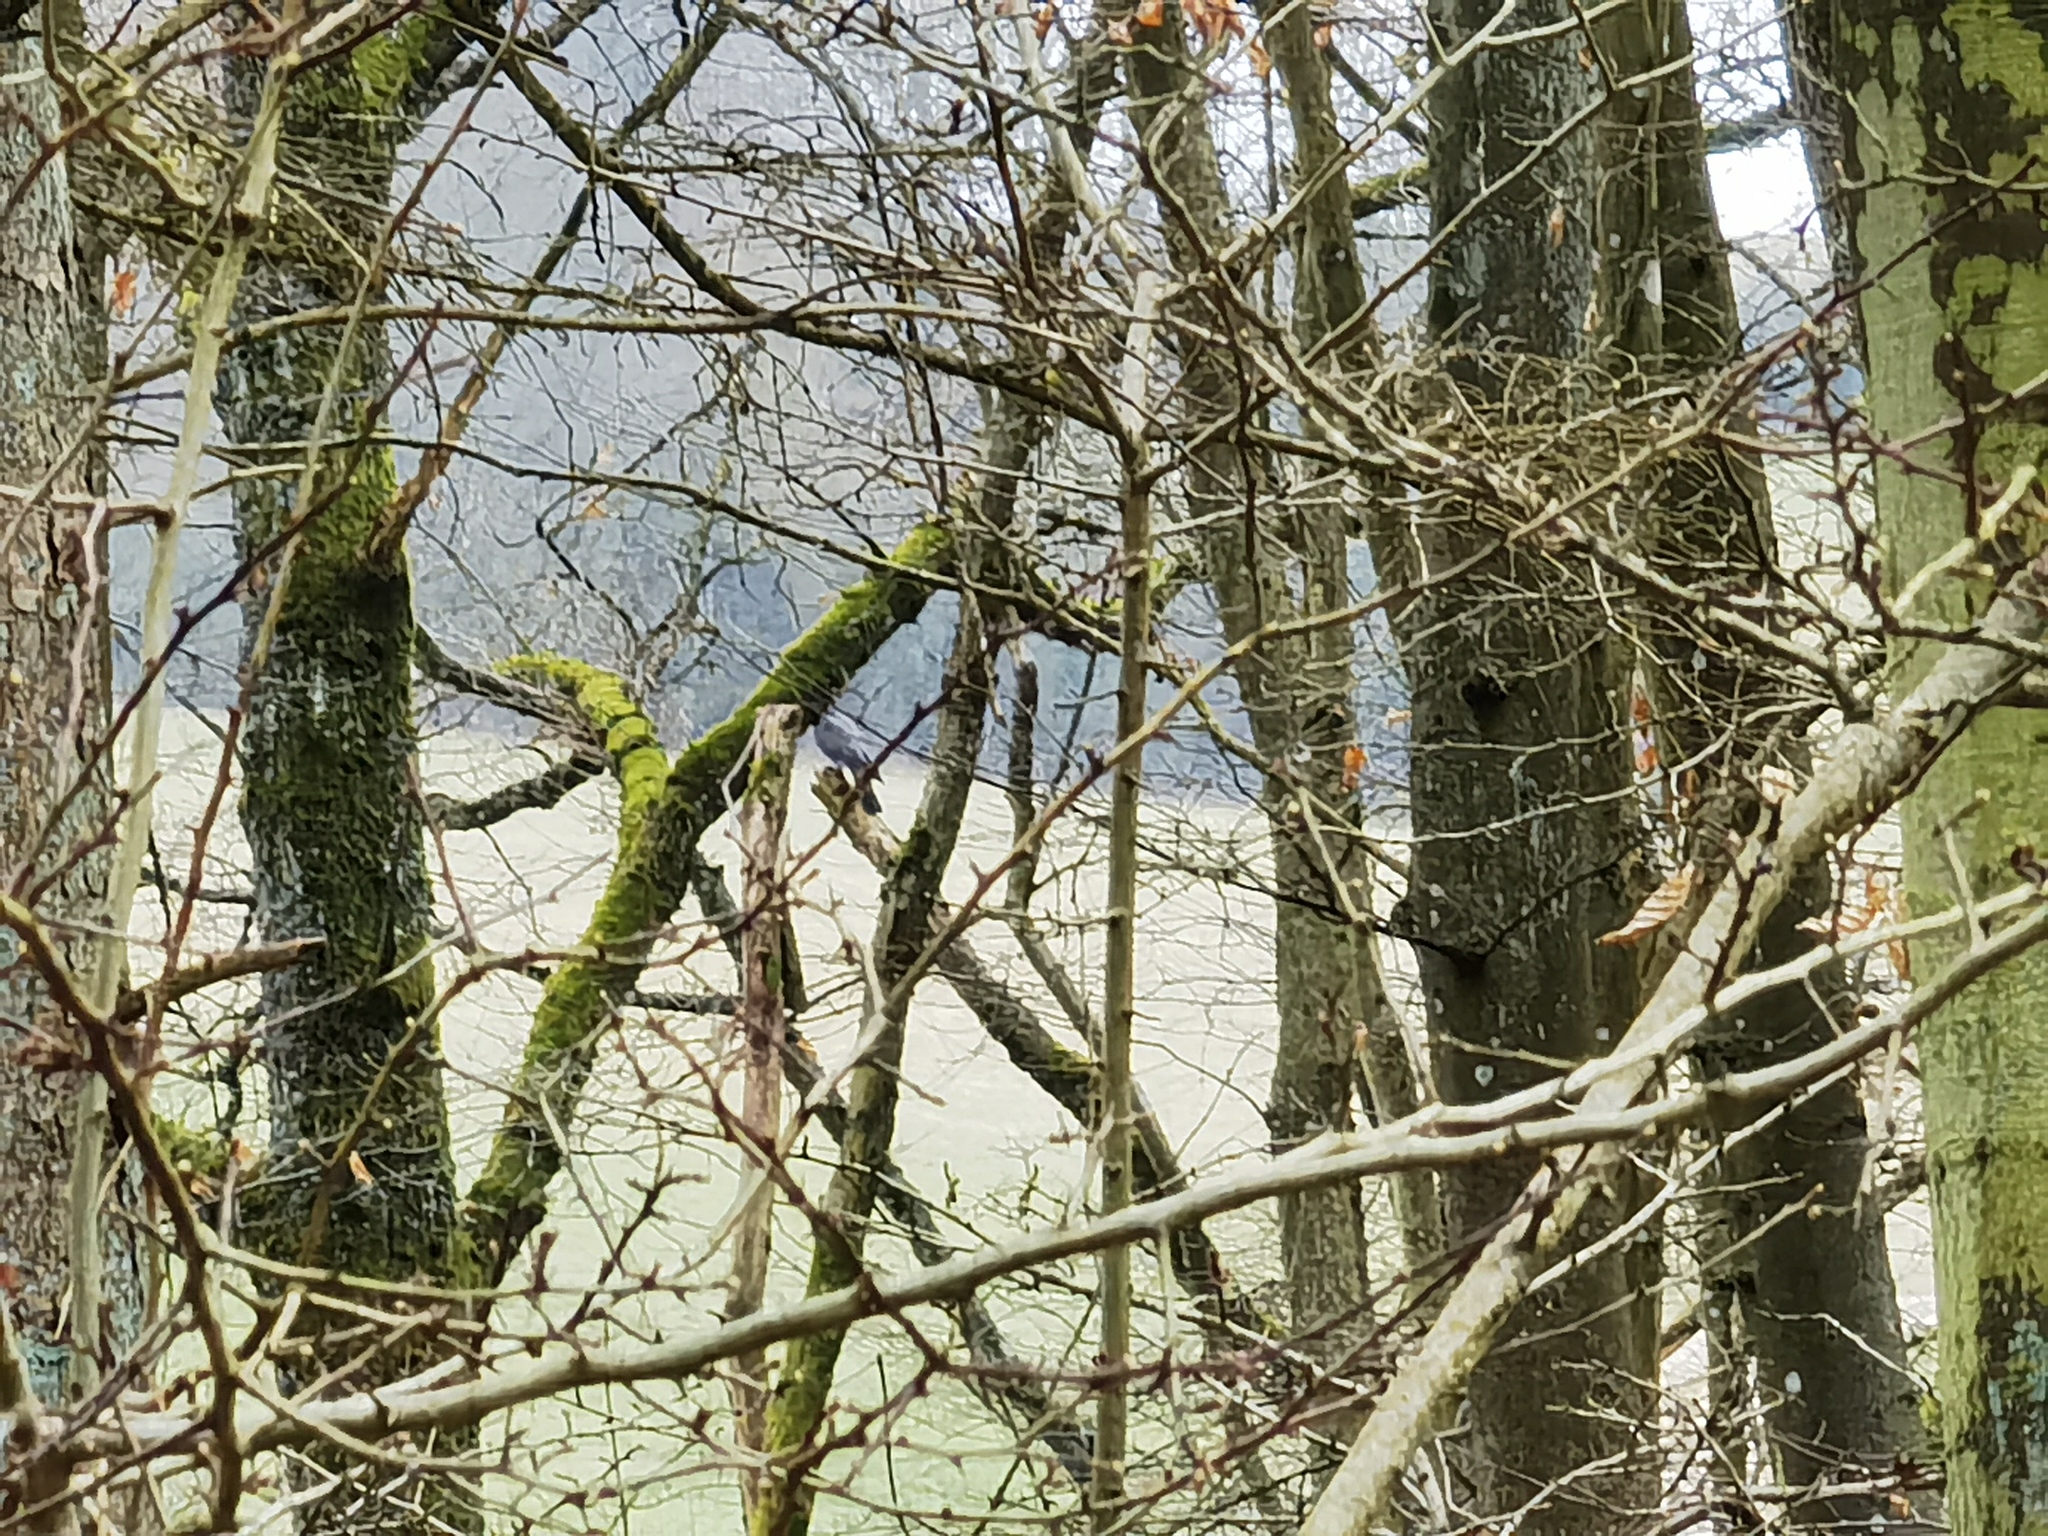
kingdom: Animalia
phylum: Chordata
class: Aves
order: Accipitriformes
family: Accipitridae
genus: Accipiter
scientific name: Accipiter nisus
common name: Eurasian sparrowhawk
